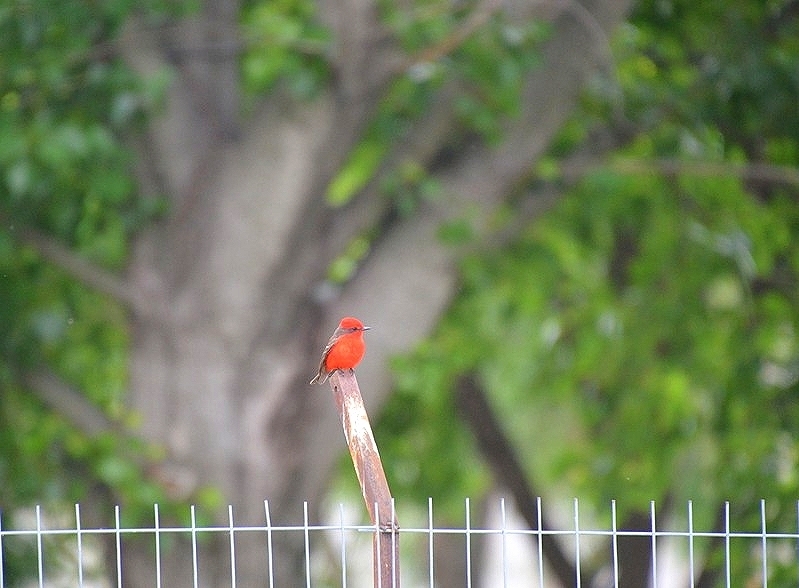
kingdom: Animalia
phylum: Chordata
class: Aves
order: Passeriformes
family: Tyrannidae
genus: Pyrocephalus
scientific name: Pyrocephalus rubinus
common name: Vermilion flycatcher
